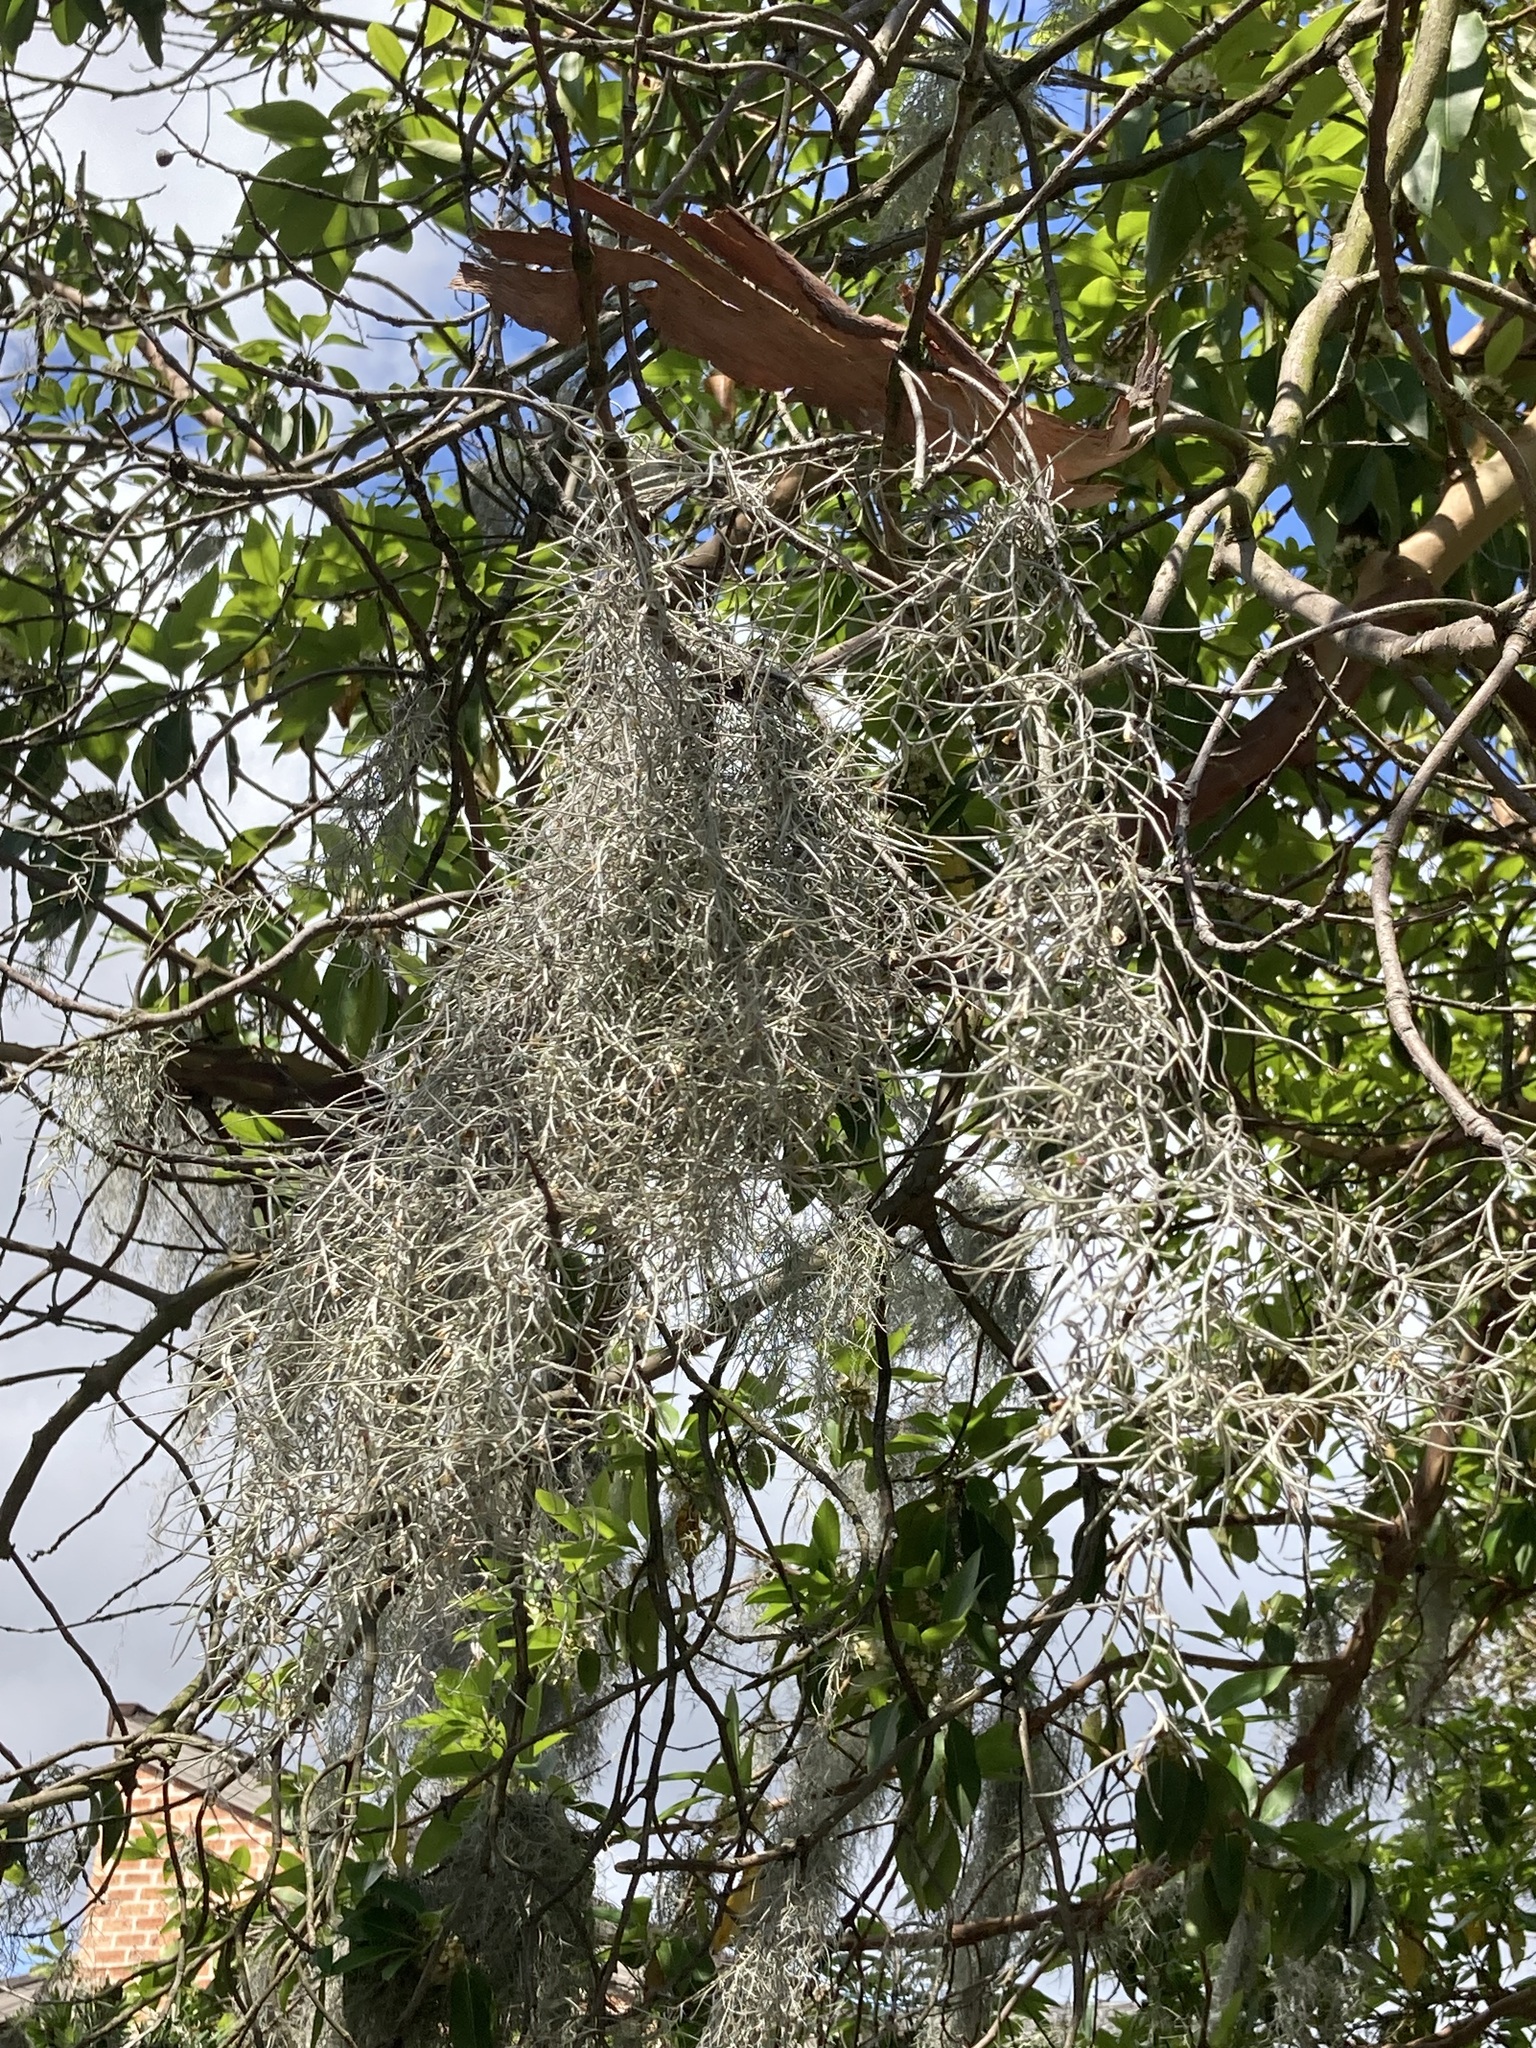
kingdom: Plantae
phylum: Tracheophyta
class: Liliopsida
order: Poales
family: Bromeliaceae
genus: Tillandsia
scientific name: Tillandsia usneoides
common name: Spanish moss
